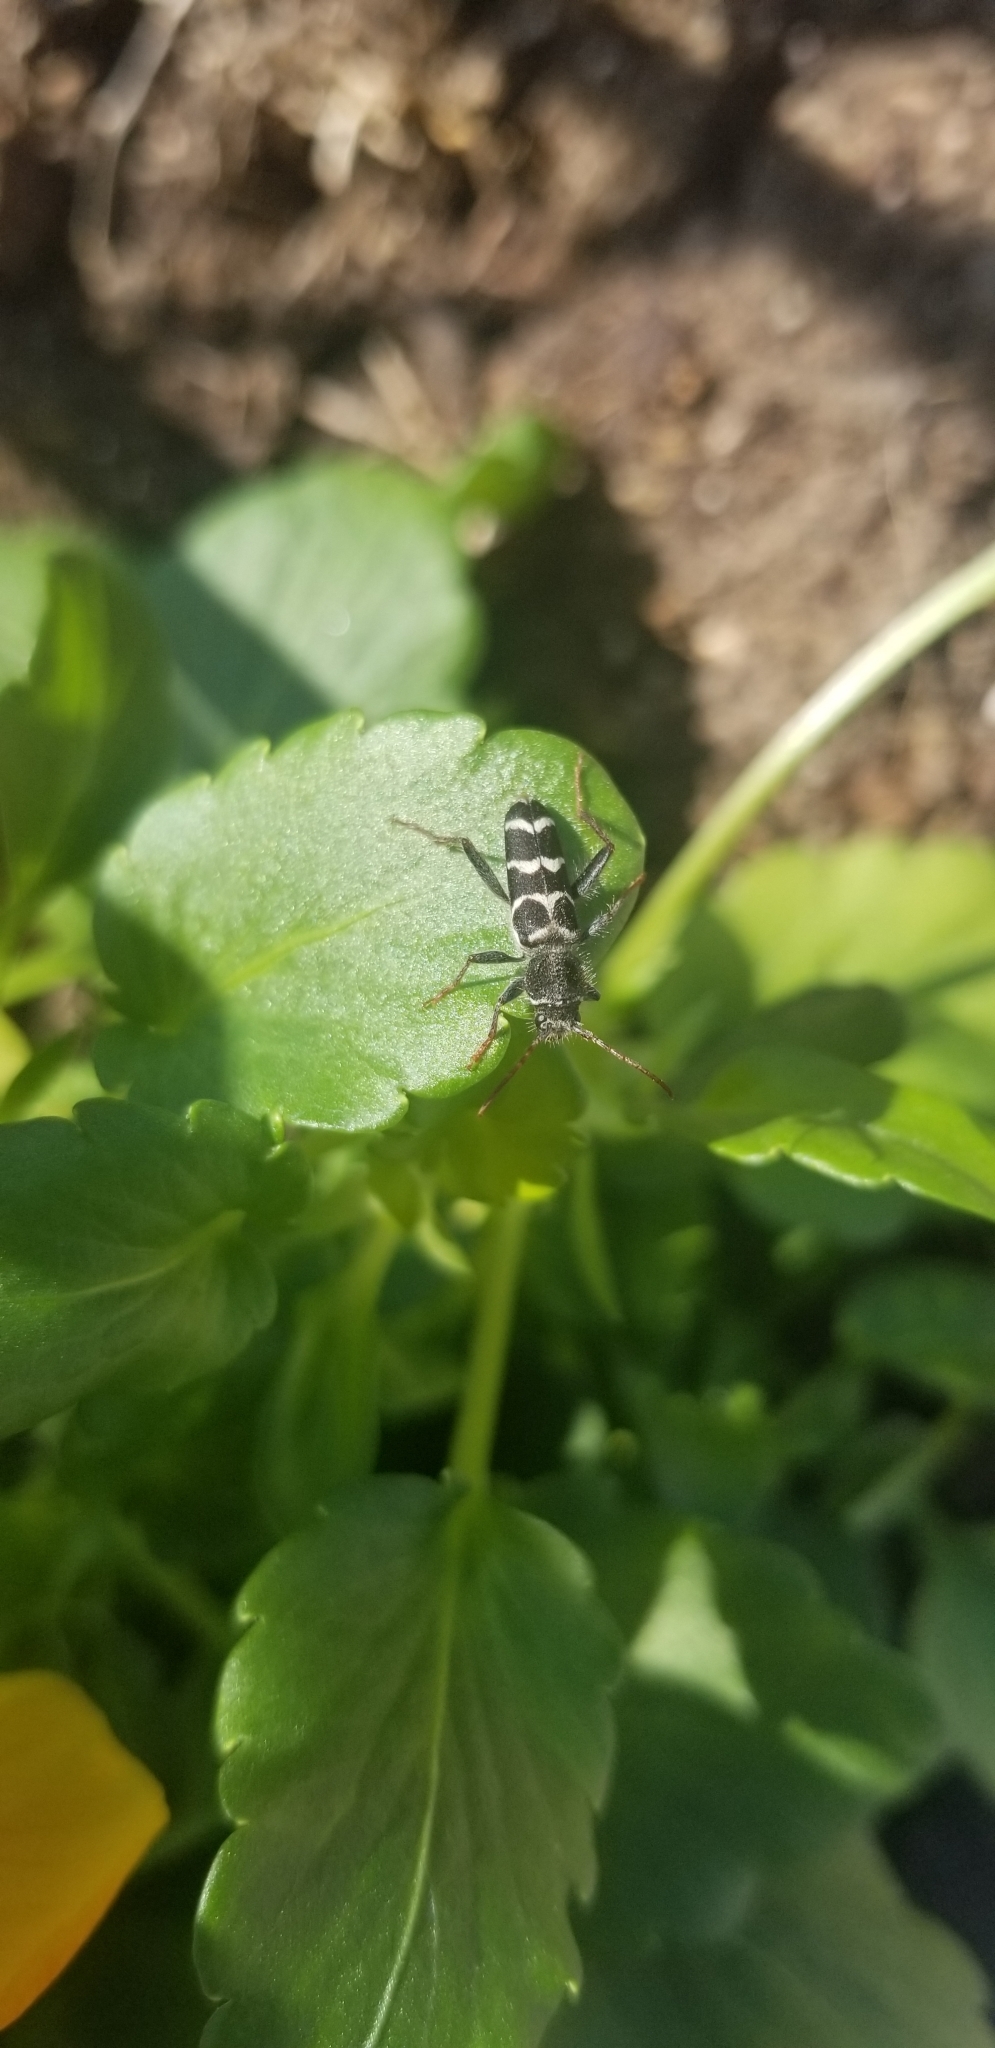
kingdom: Animalia
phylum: Arthropoda
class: Insecta
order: Coleoptera
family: Cerambycidae
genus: Neoclytus
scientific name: Neoclytus caprea
